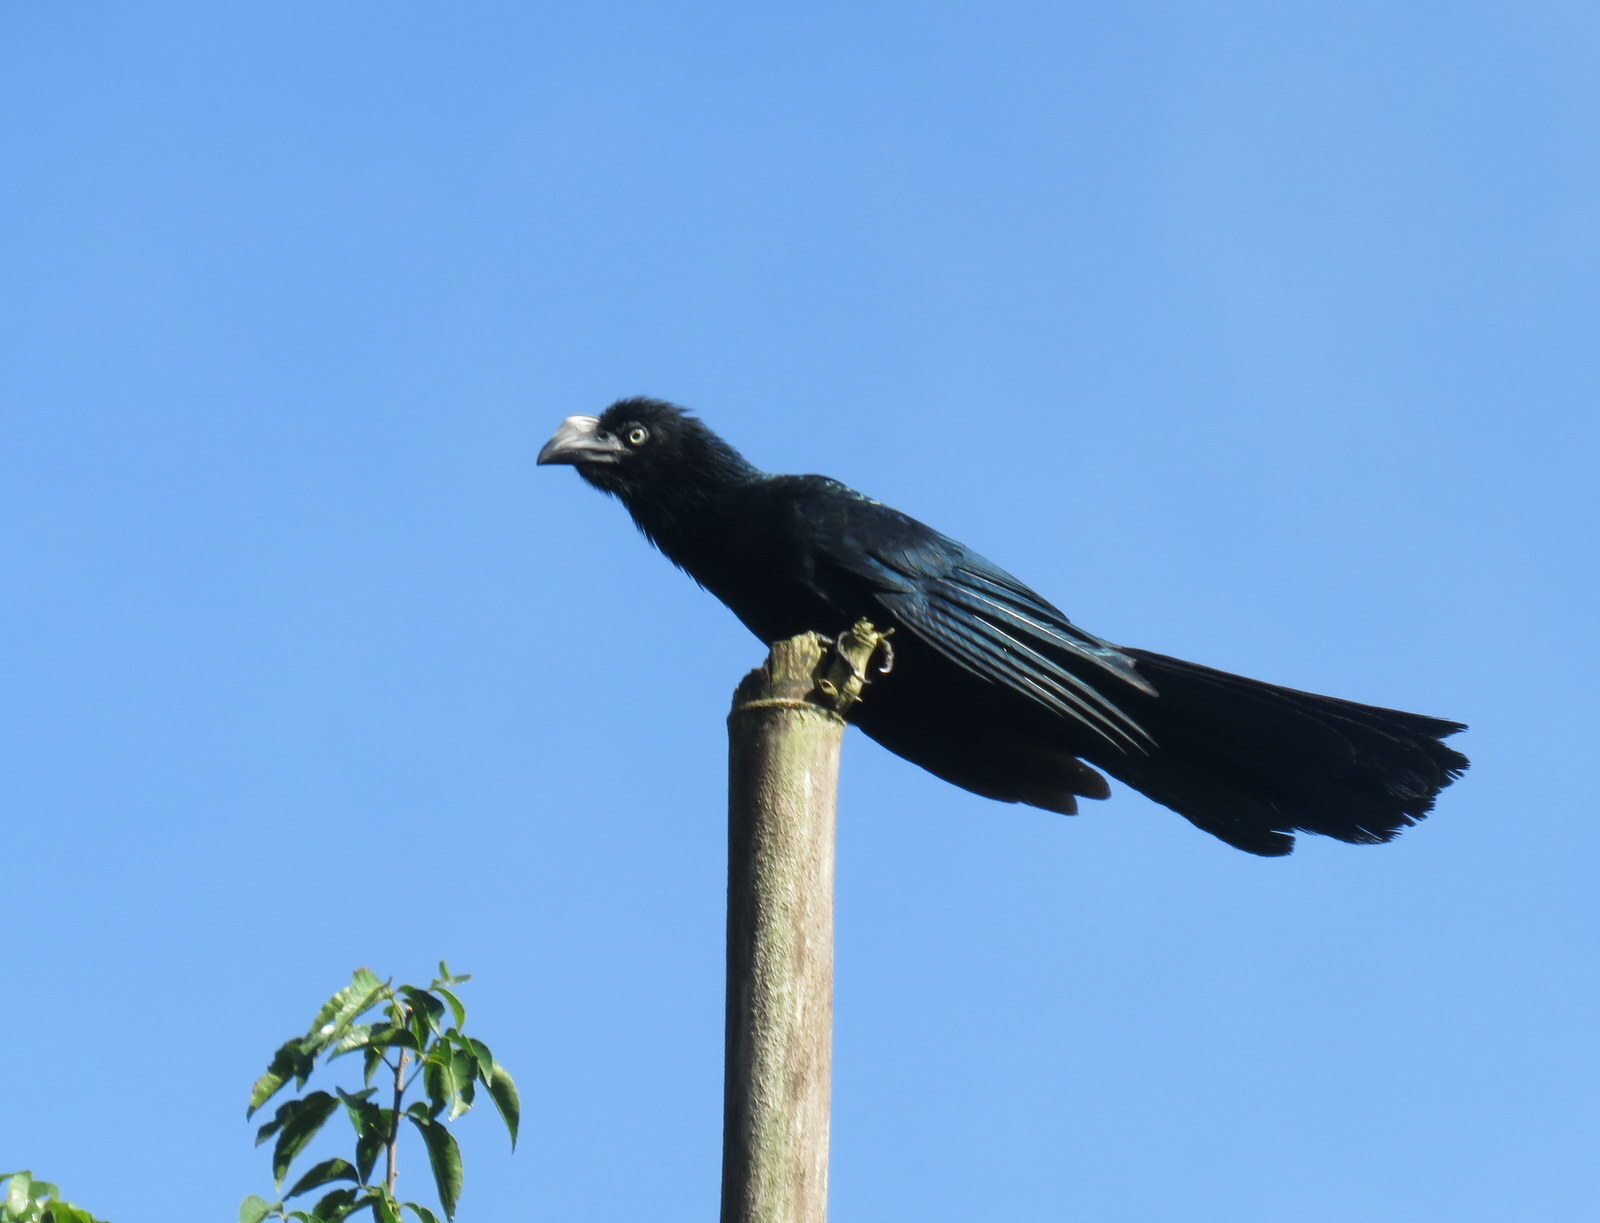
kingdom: Animalia
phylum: Chordata
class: Aves
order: Cuculiformes
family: Cuculidae
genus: Crotophaga
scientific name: Crotophaga major
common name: Greater ani
